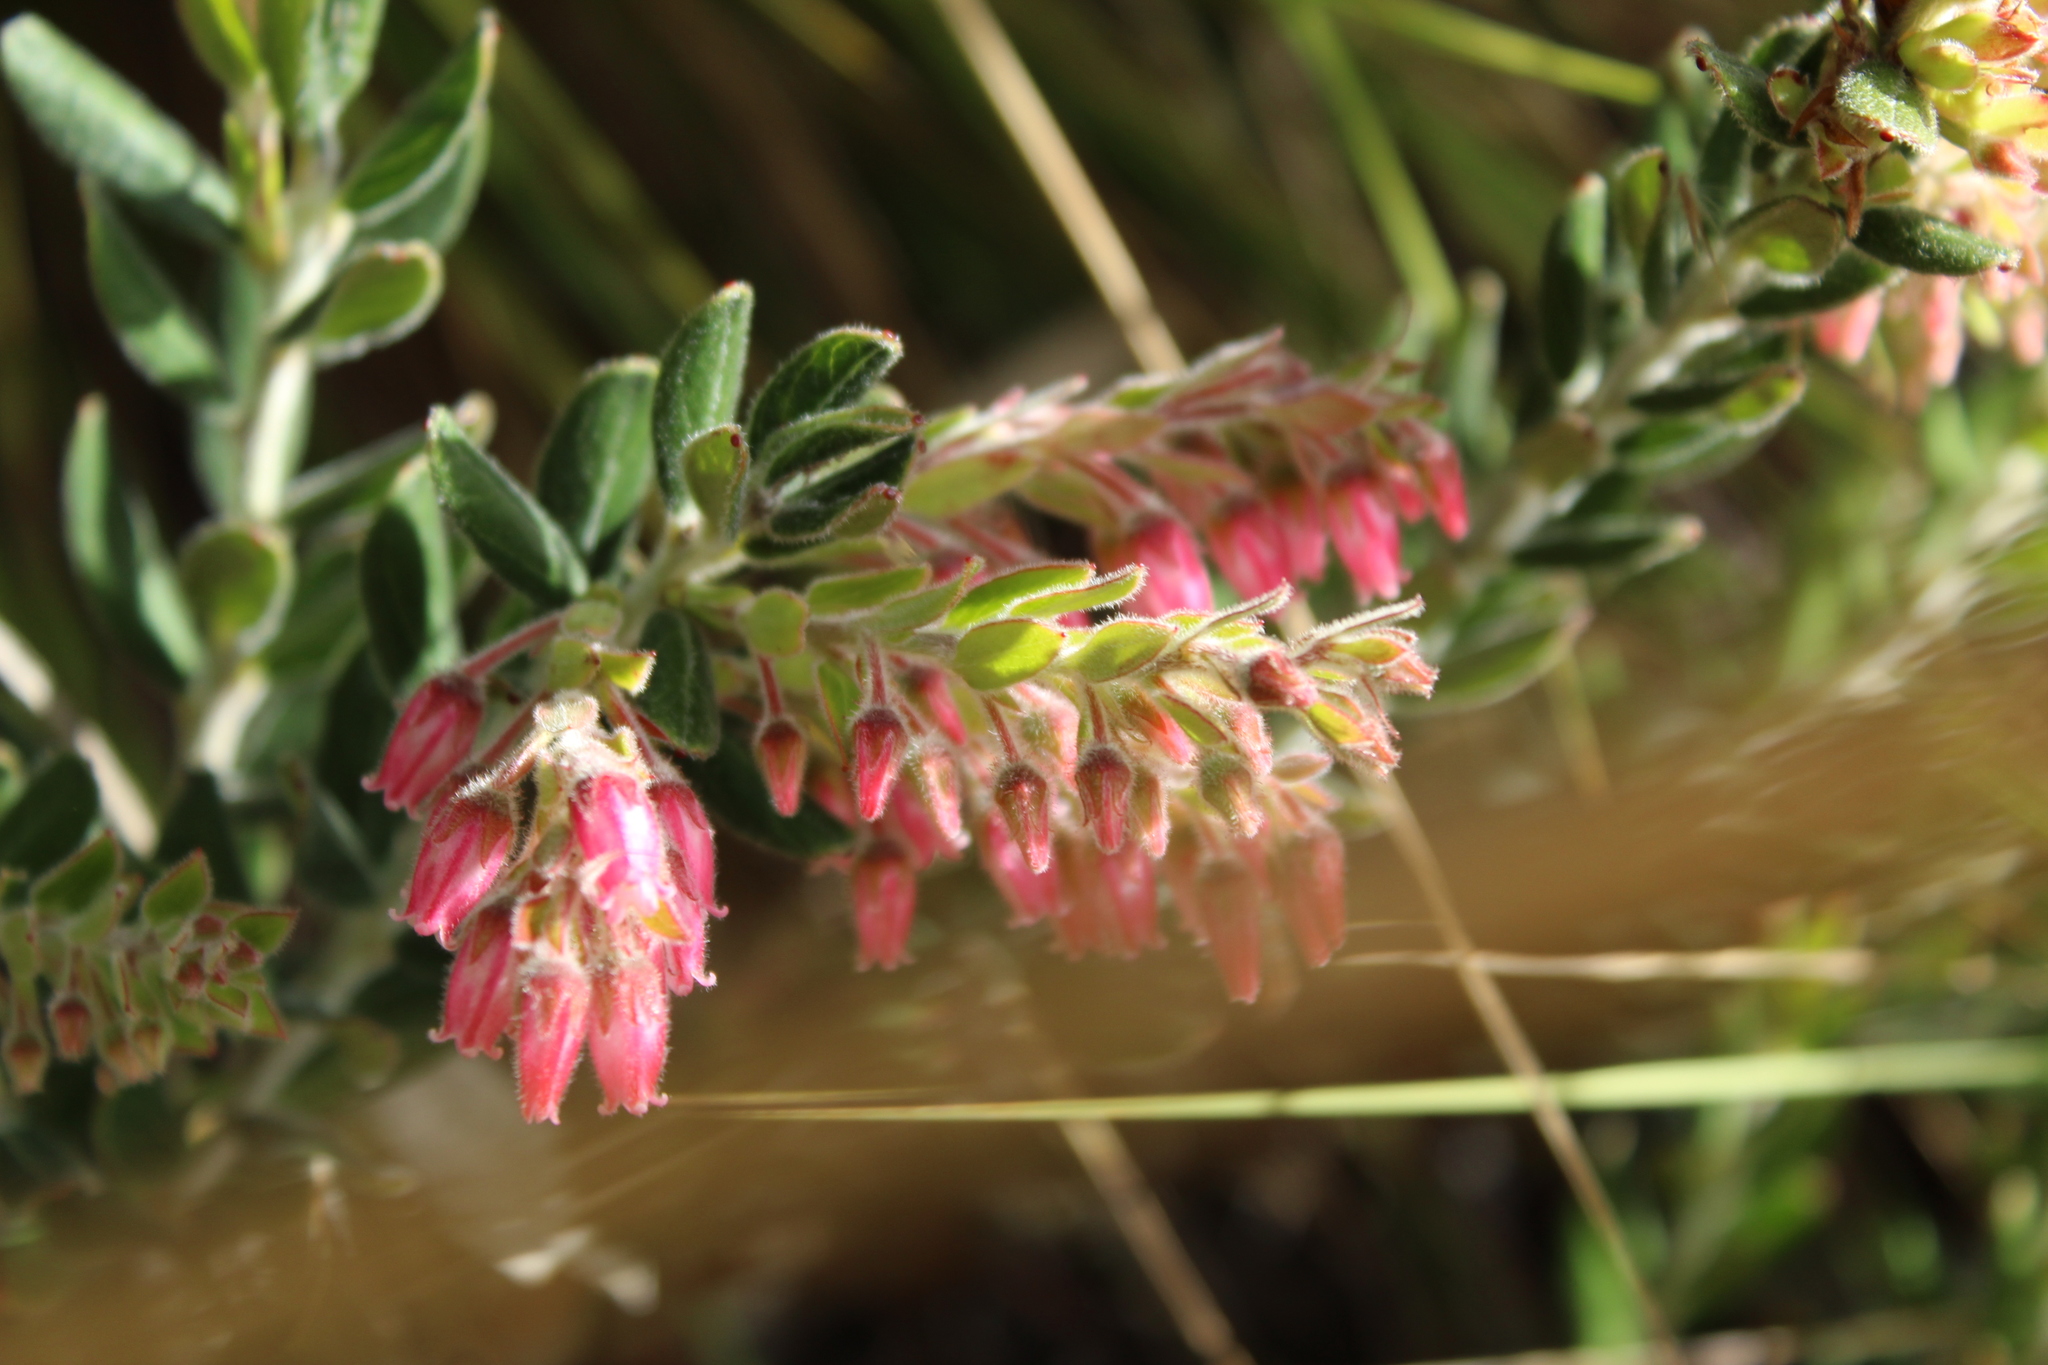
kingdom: Plantae
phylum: Tracheophyta
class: Magnoliopsida
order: Ericales
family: Ericaceae
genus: Gaylussacia
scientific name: Gaylussacia buxifolia
